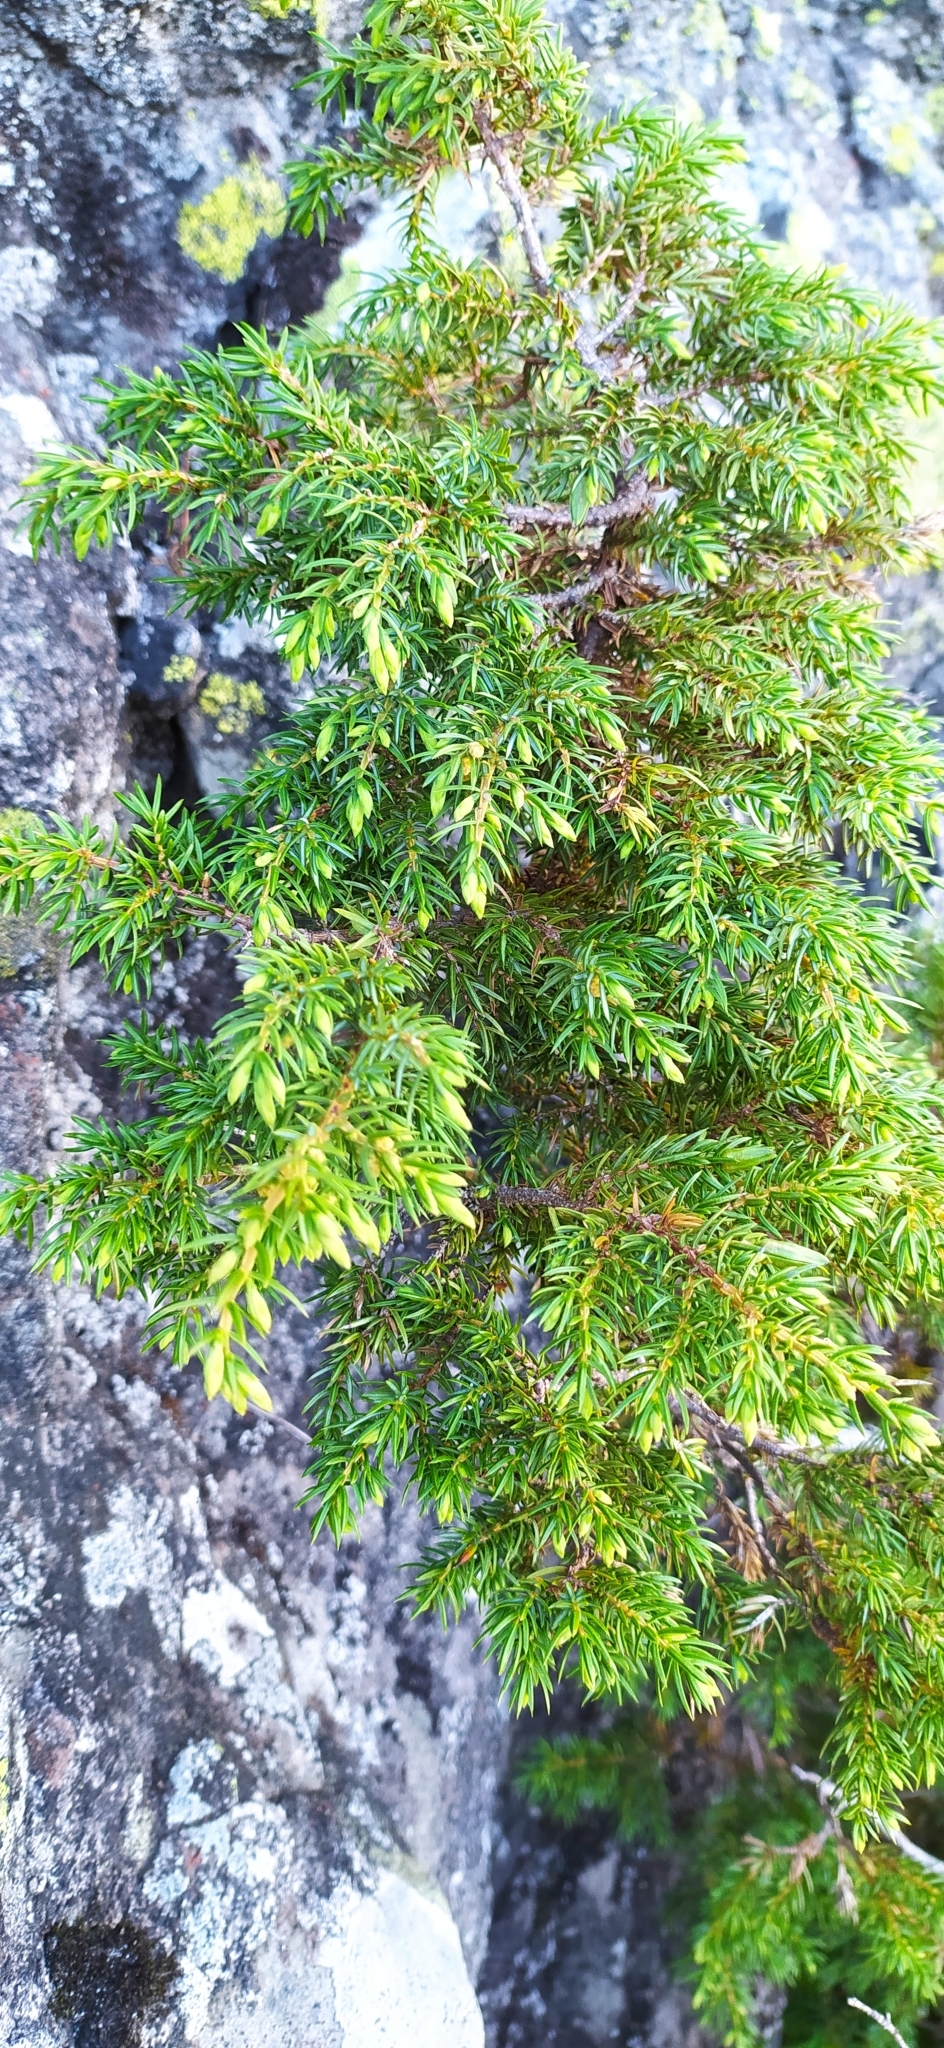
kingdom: Plantae
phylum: Tracheophyta
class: Pinopsida
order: Pinales
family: Cupressaceae
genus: Juniperus
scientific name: Juniperus communis
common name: Common juniper
